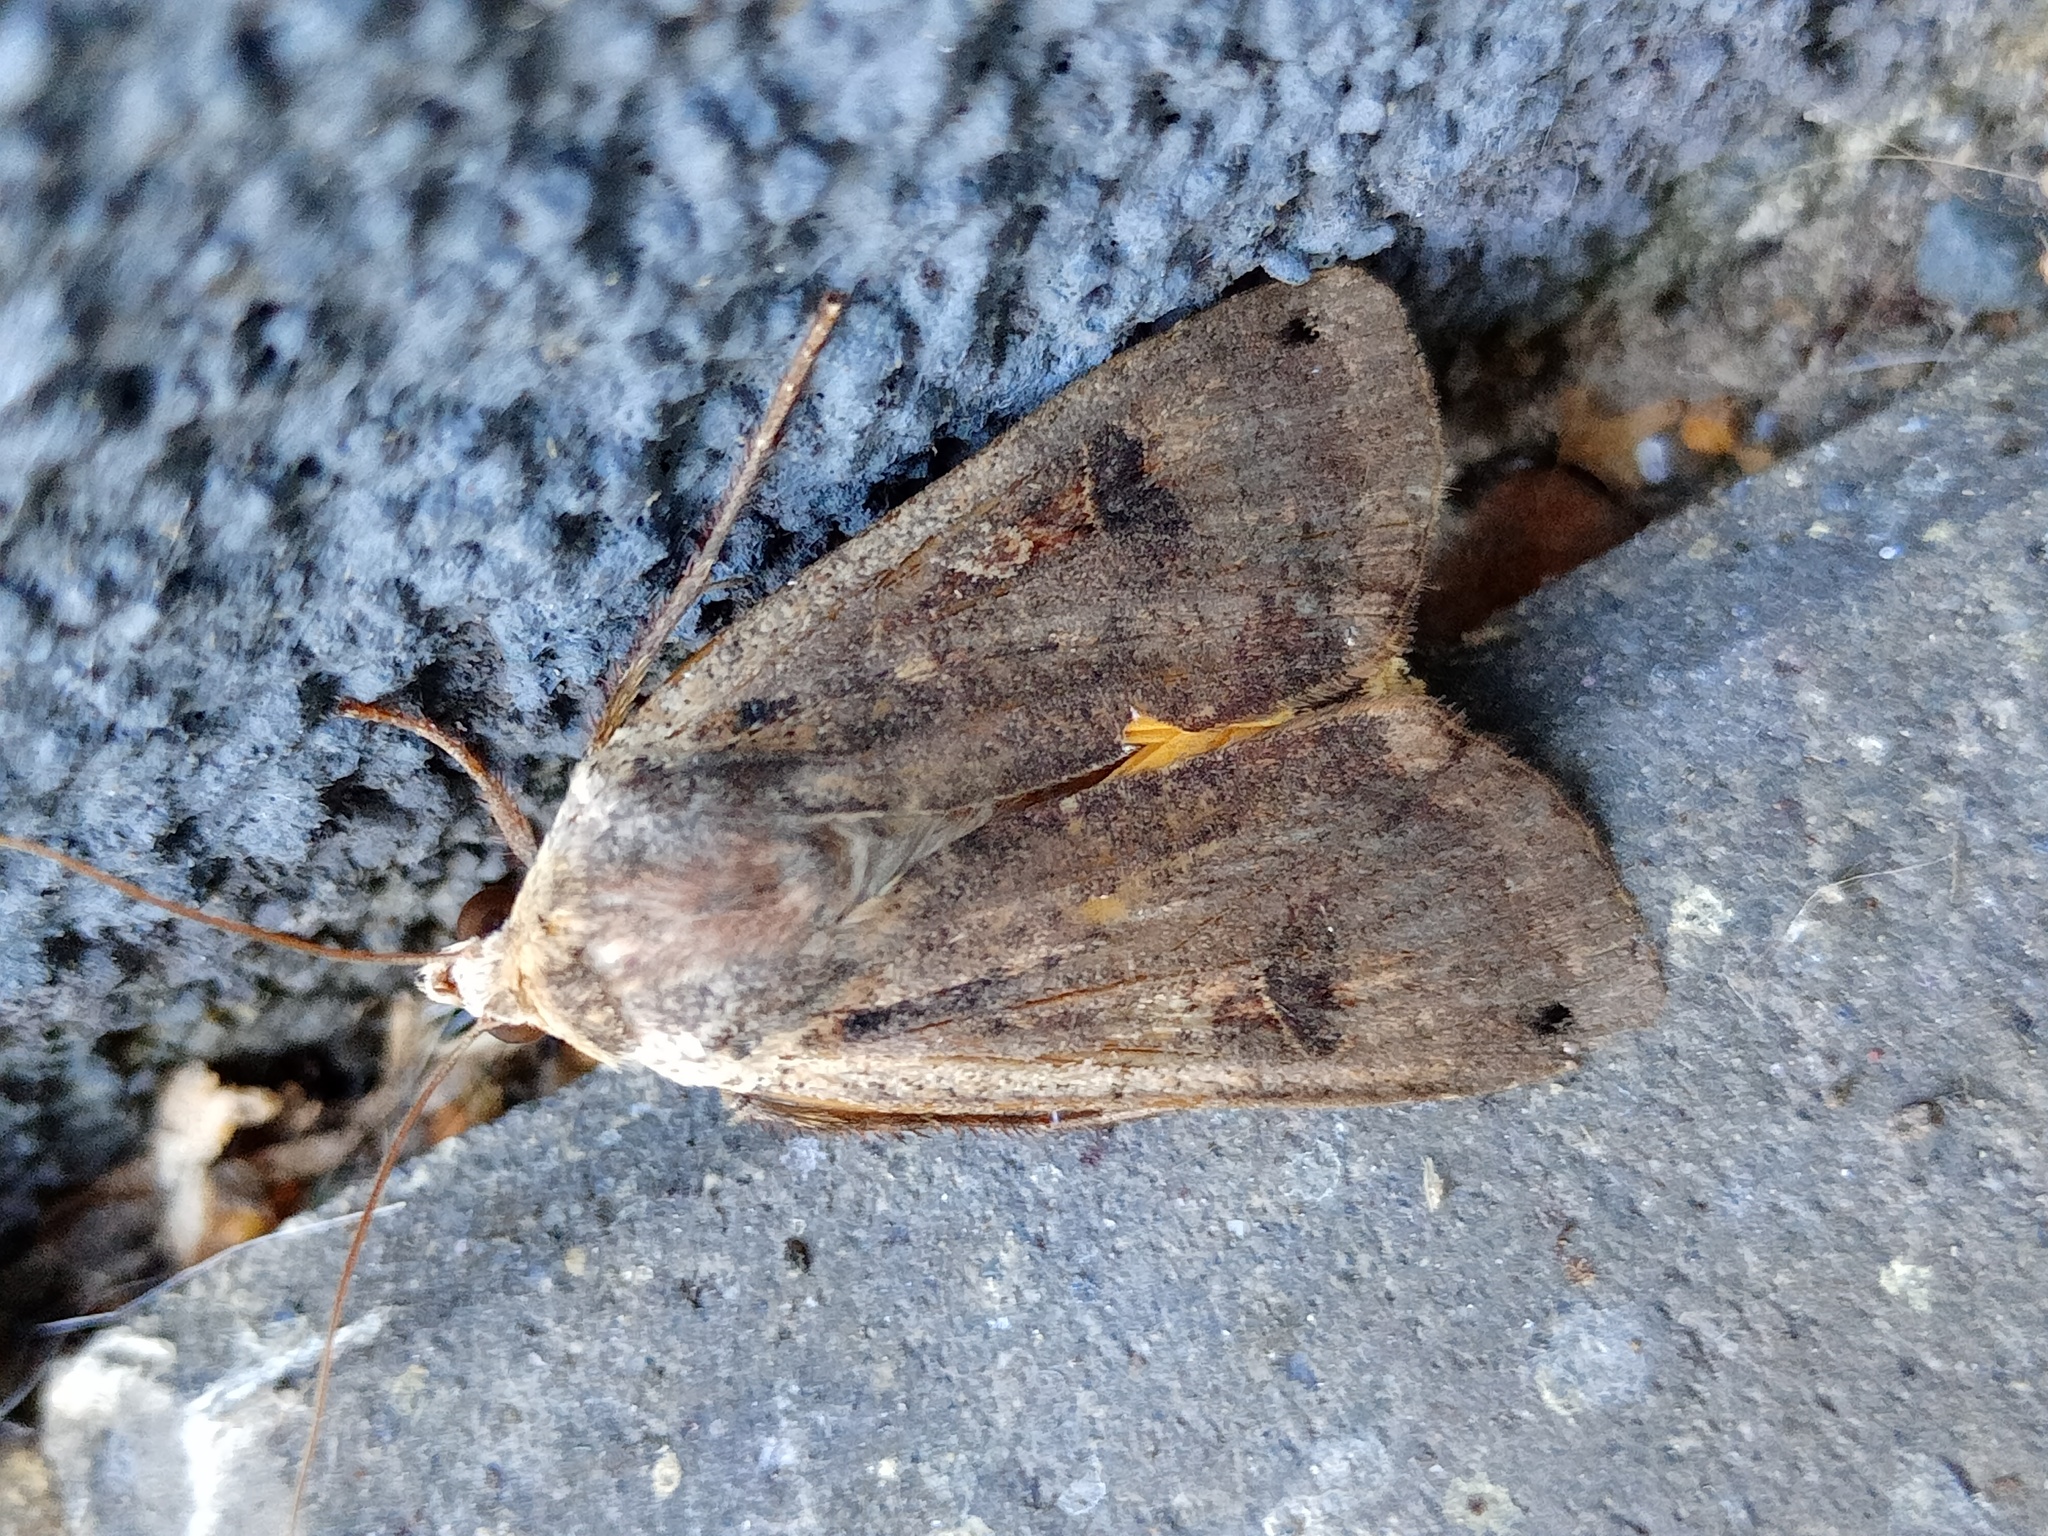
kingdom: Animalia
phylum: Arthropoda
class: Insecta
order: Lepidoptera
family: Noctuidae
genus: Noctua
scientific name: Noctua pronuba
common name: Large yellow underwing
